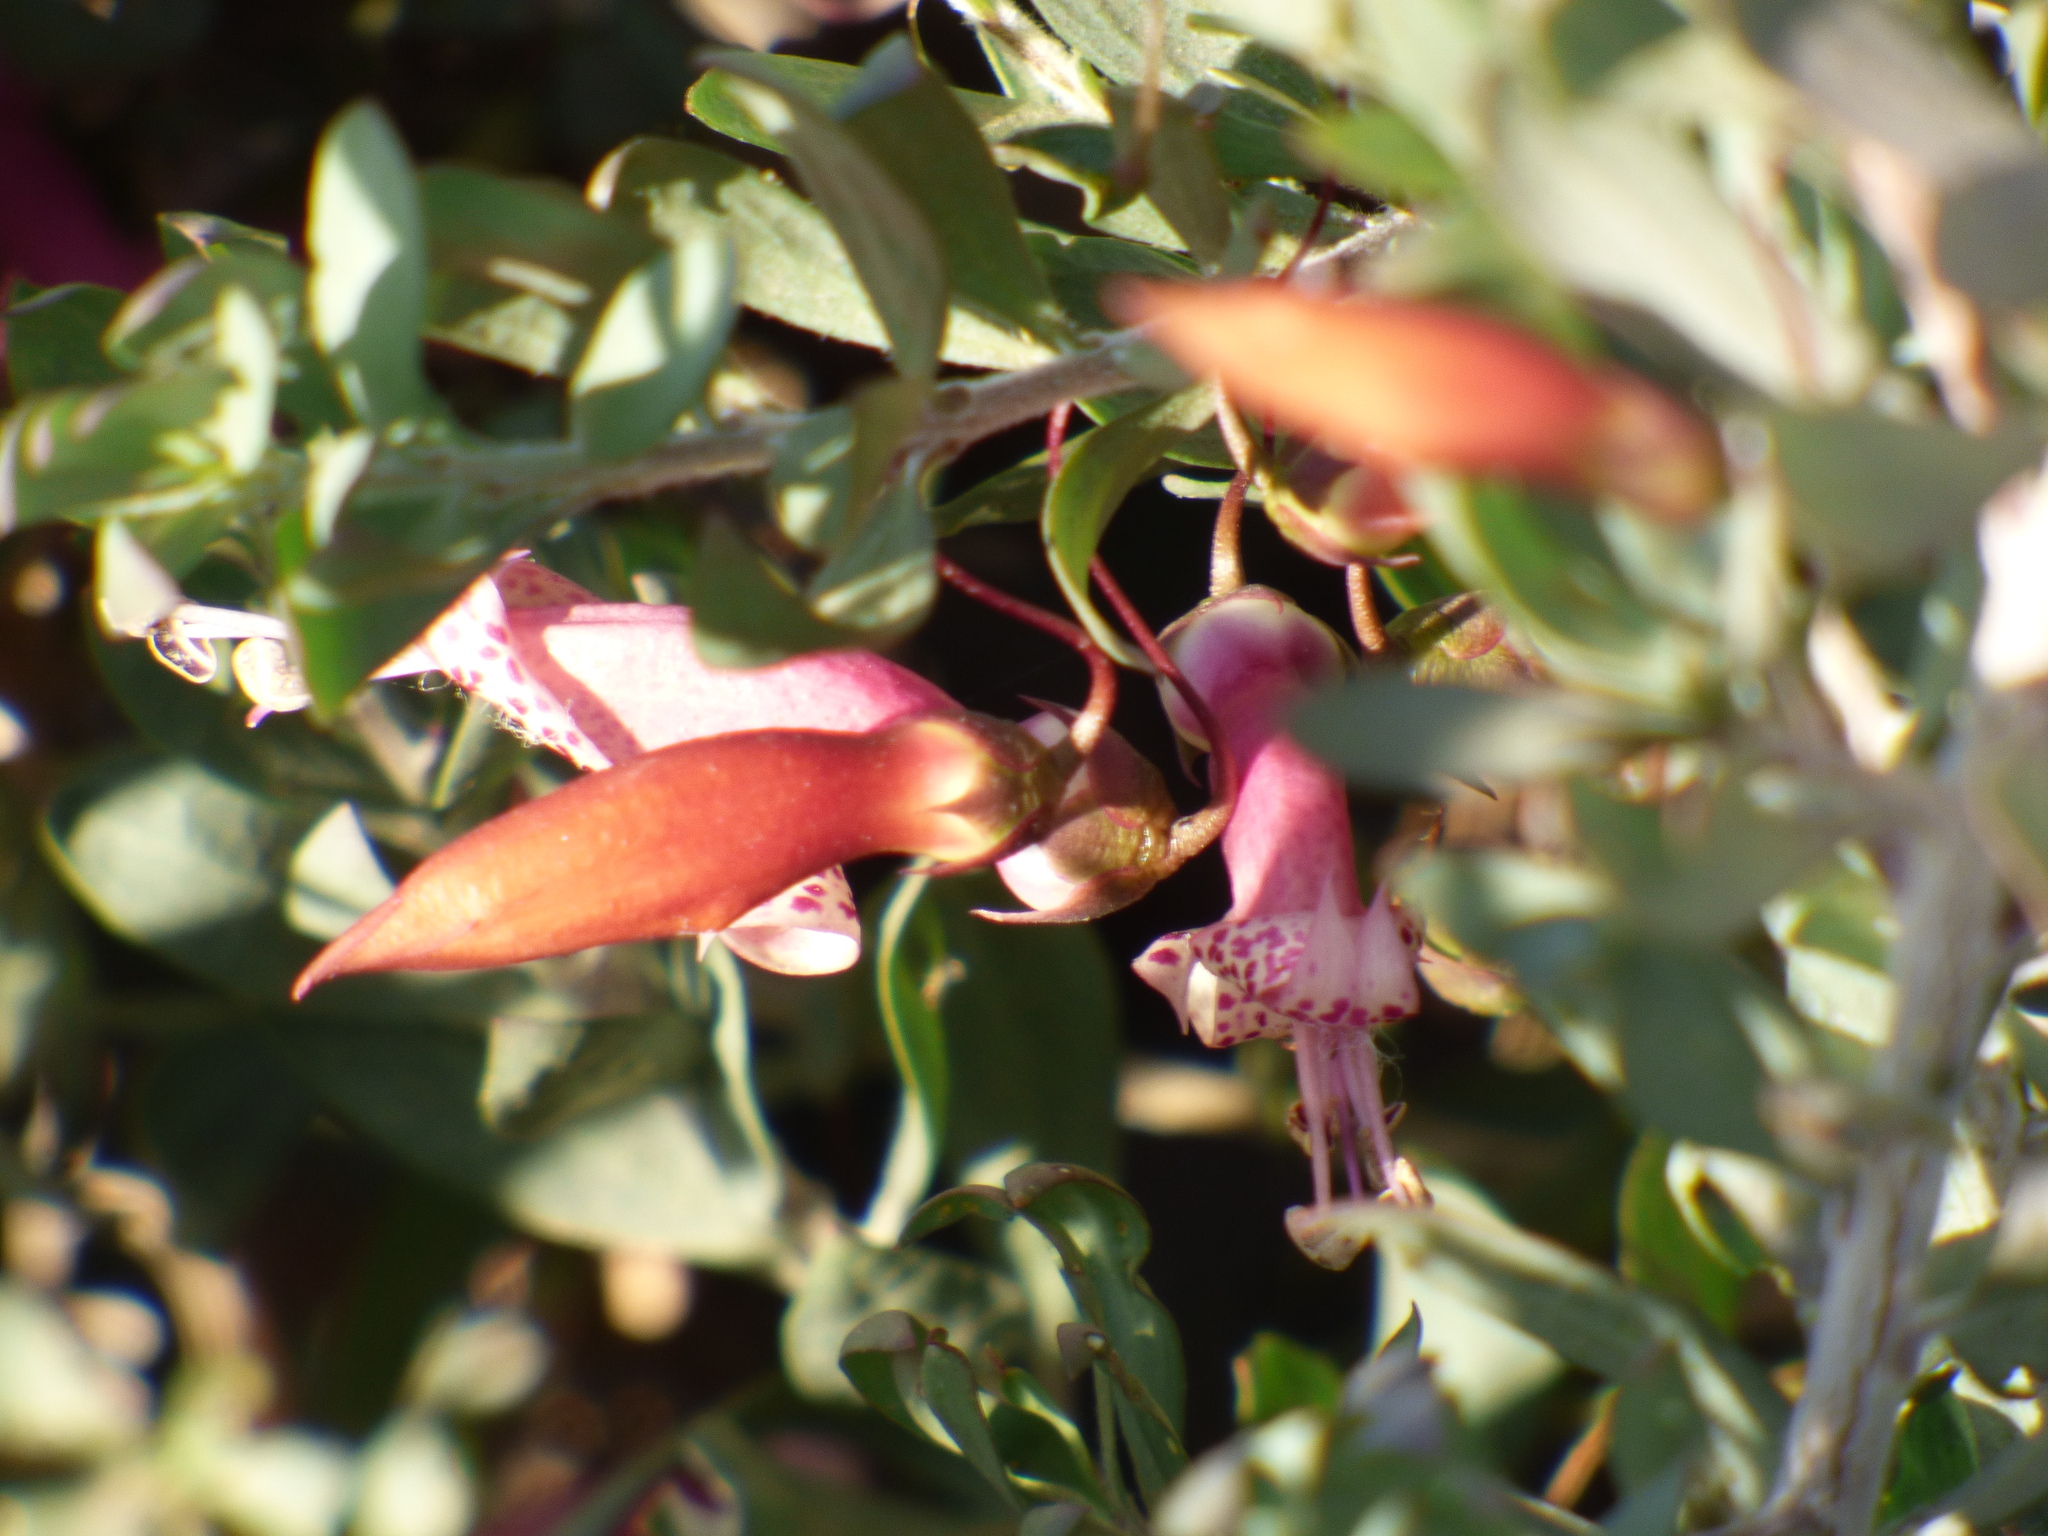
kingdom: Plantae
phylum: Tracheophyta
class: Magnoliopsida
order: Lamiales
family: Scrophulariaceae
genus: Eremophila
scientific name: Eremophila maculata
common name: Fuchsiabush
